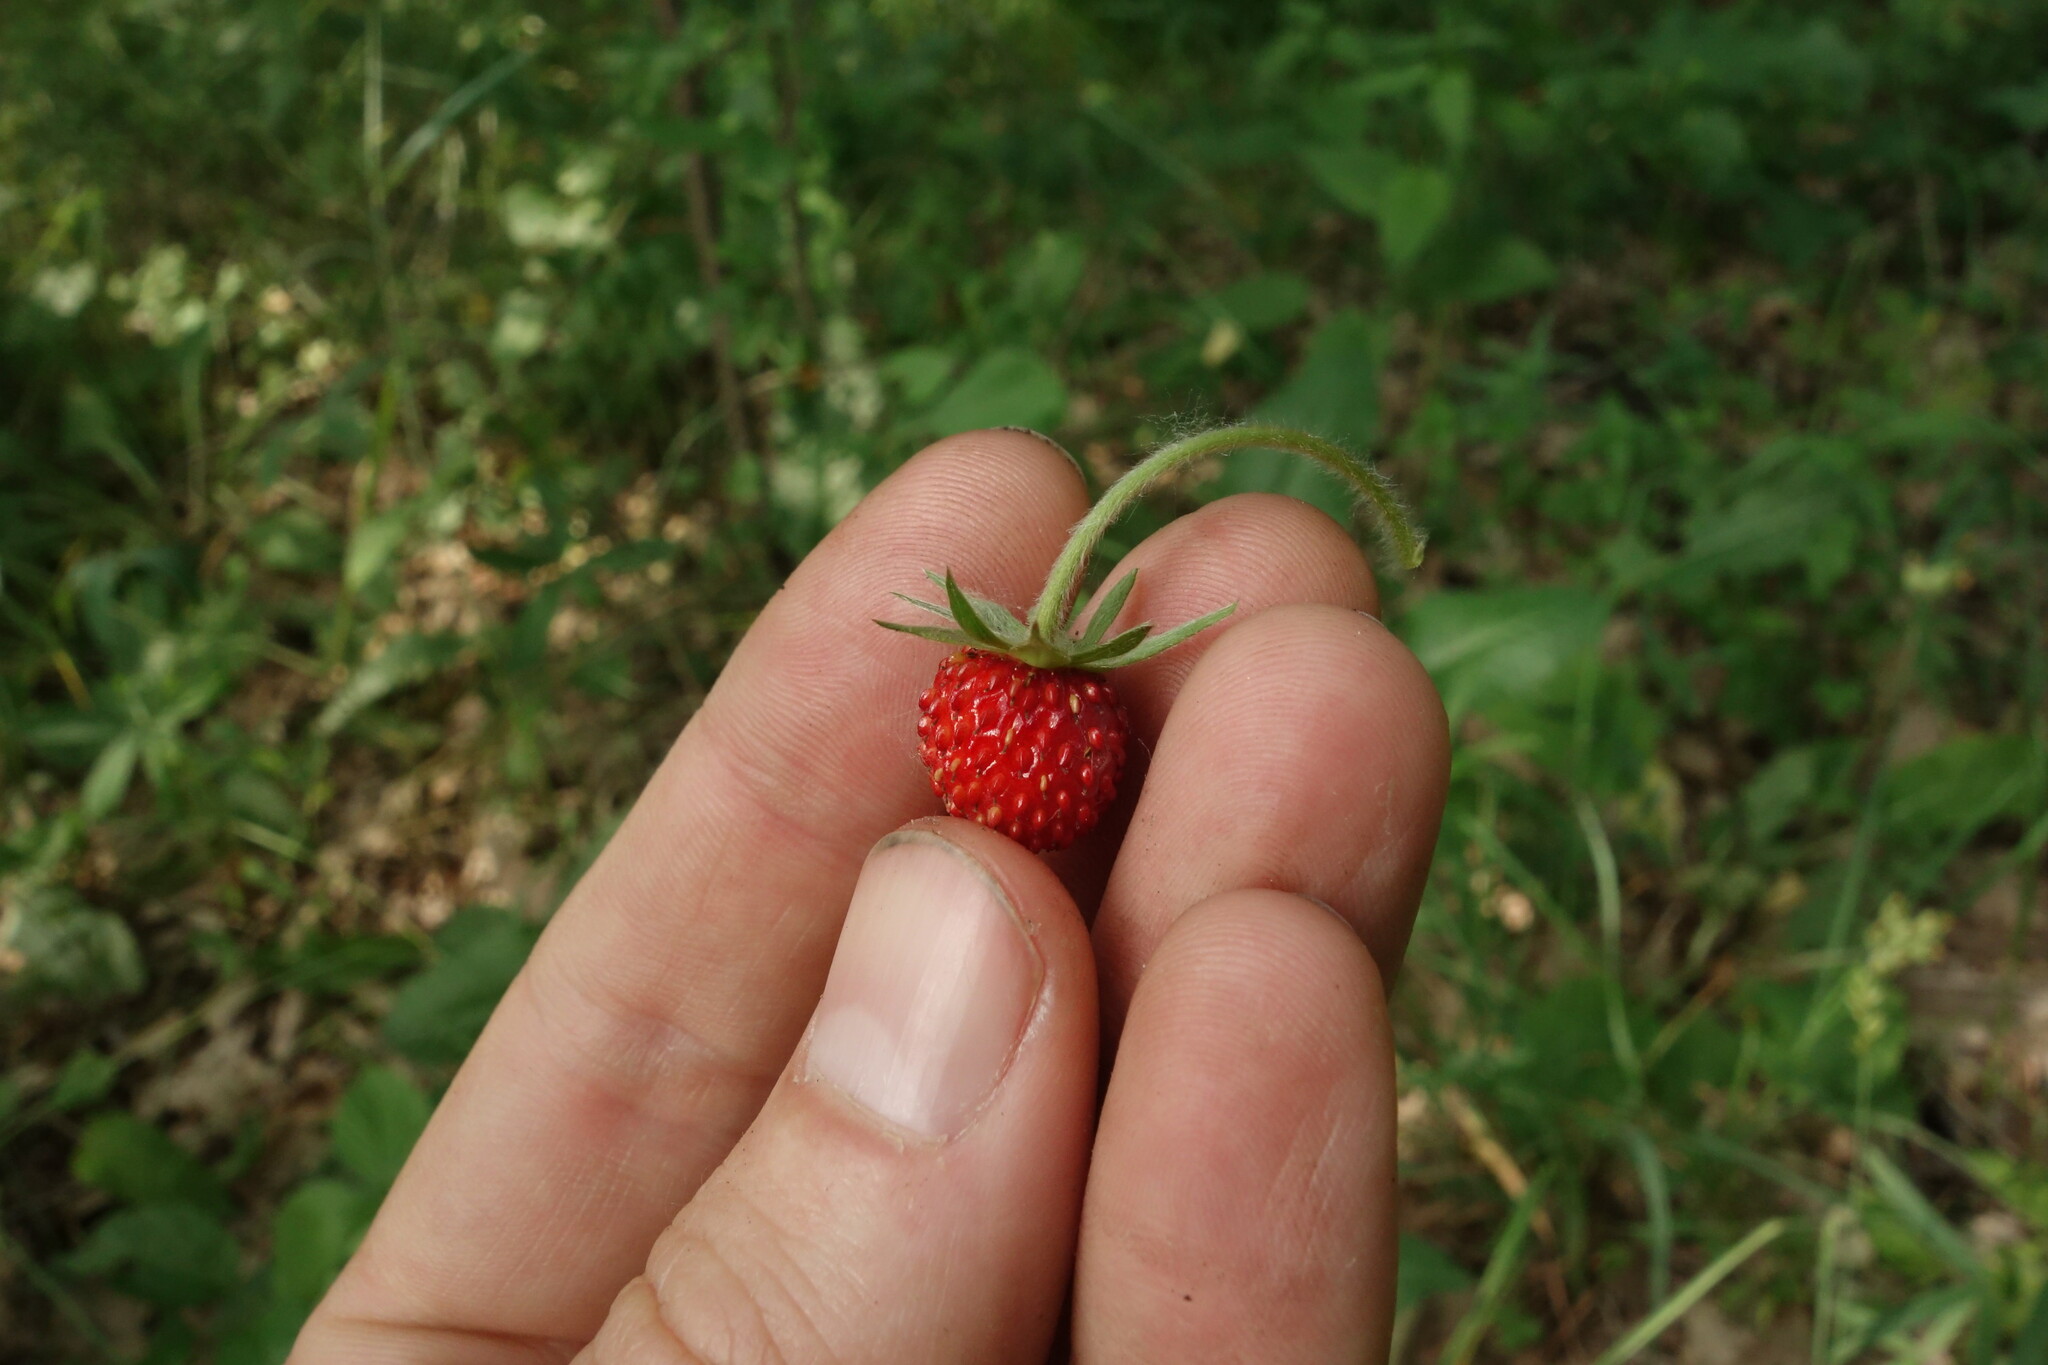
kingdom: Plantae
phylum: Tracheophyta
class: Magnoliopsida
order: Rosales
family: Rosaceae
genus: Fragaria
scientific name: Fragaria vesca
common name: Wild strawberry
